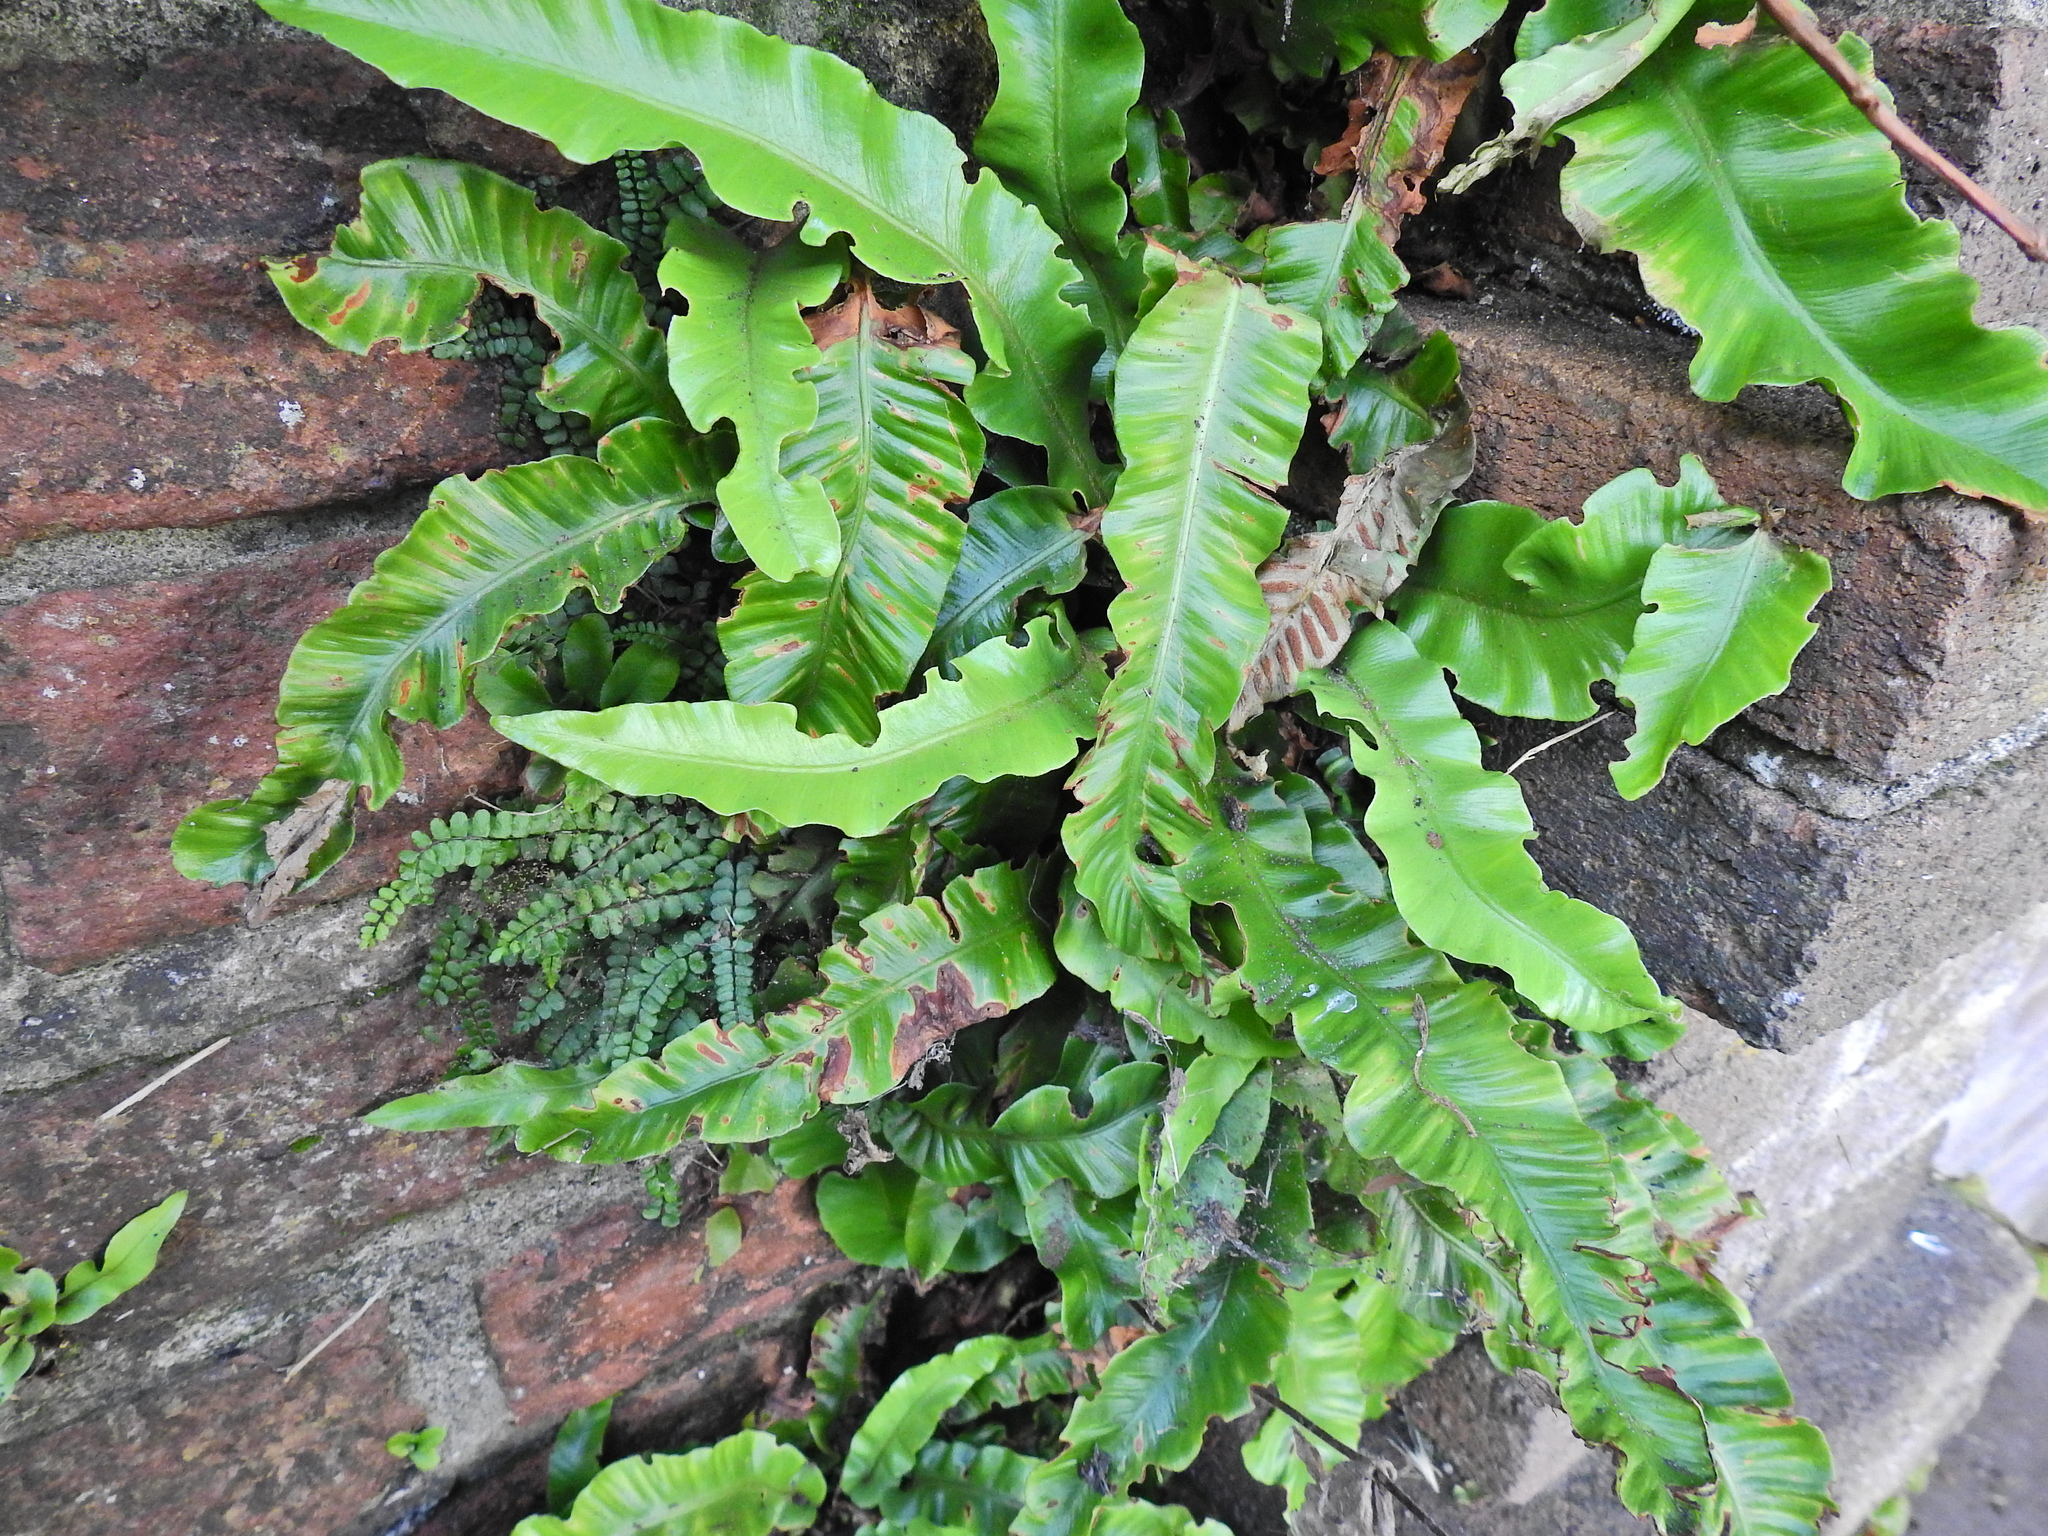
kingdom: Plantae
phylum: Tracheophyta
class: Polypodiopsida
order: Polypodiales
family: Aspleniaceae
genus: Asplenium
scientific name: Asplenium scolopendrium
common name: Hart's-tongue fern
